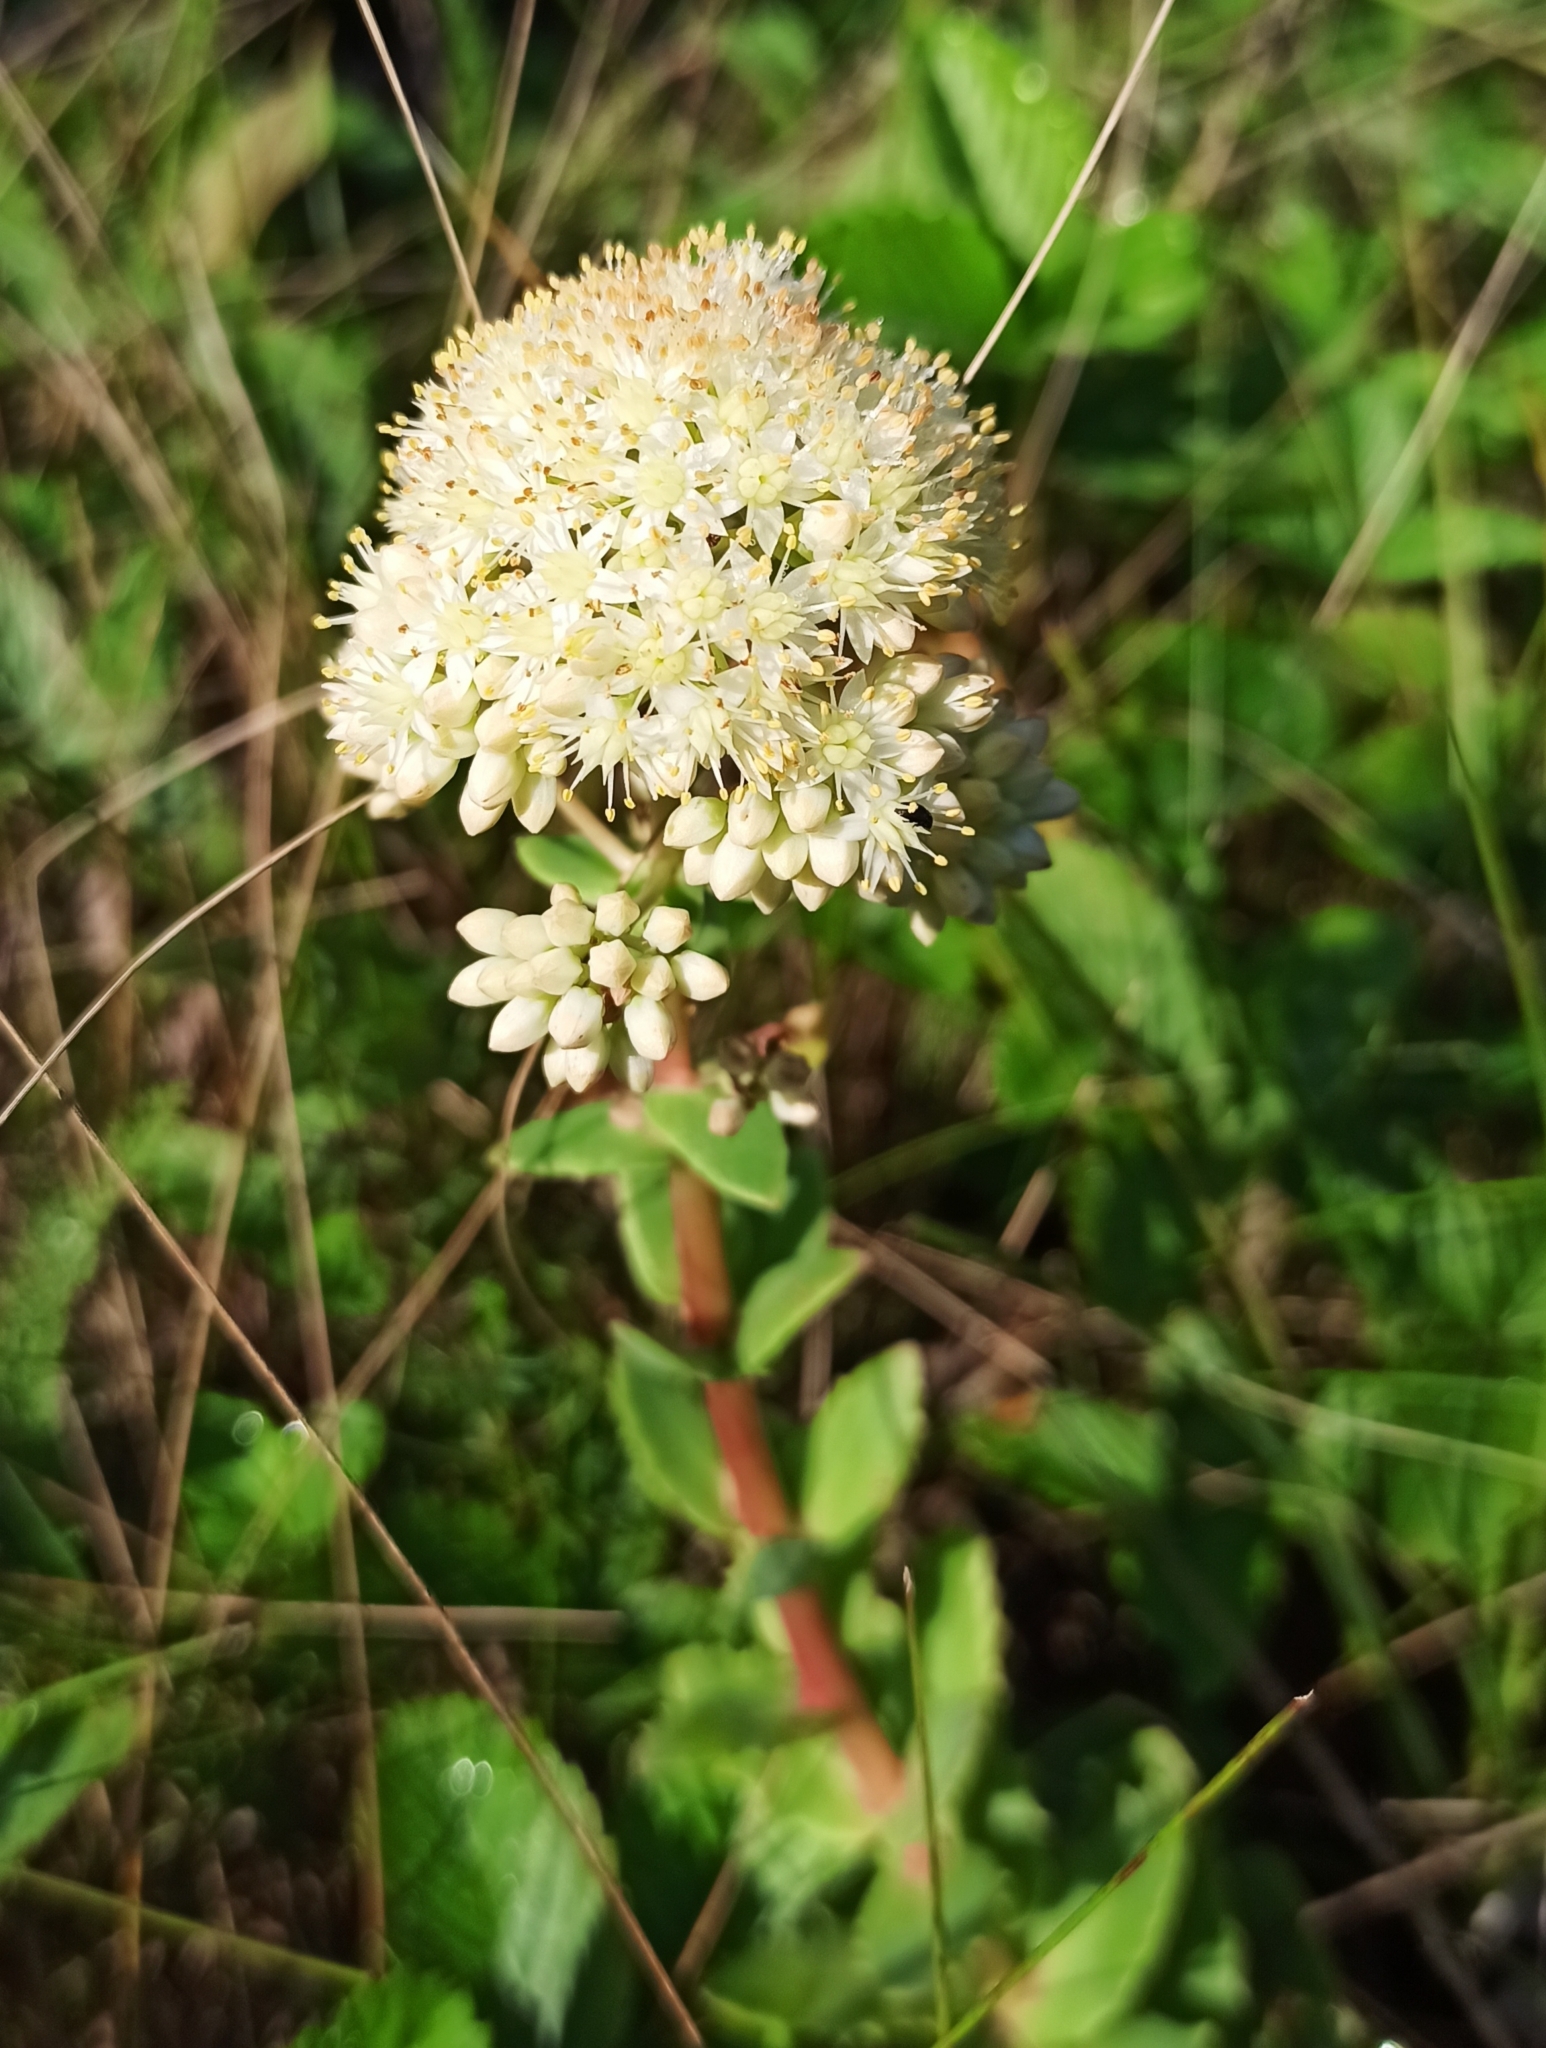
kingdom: Plantae
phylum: Tracheophyta
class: Magnoliopsida
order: Saxifragales
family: Crassulaceae
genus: Hylotelephium
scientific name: Hylotelephium maximum
